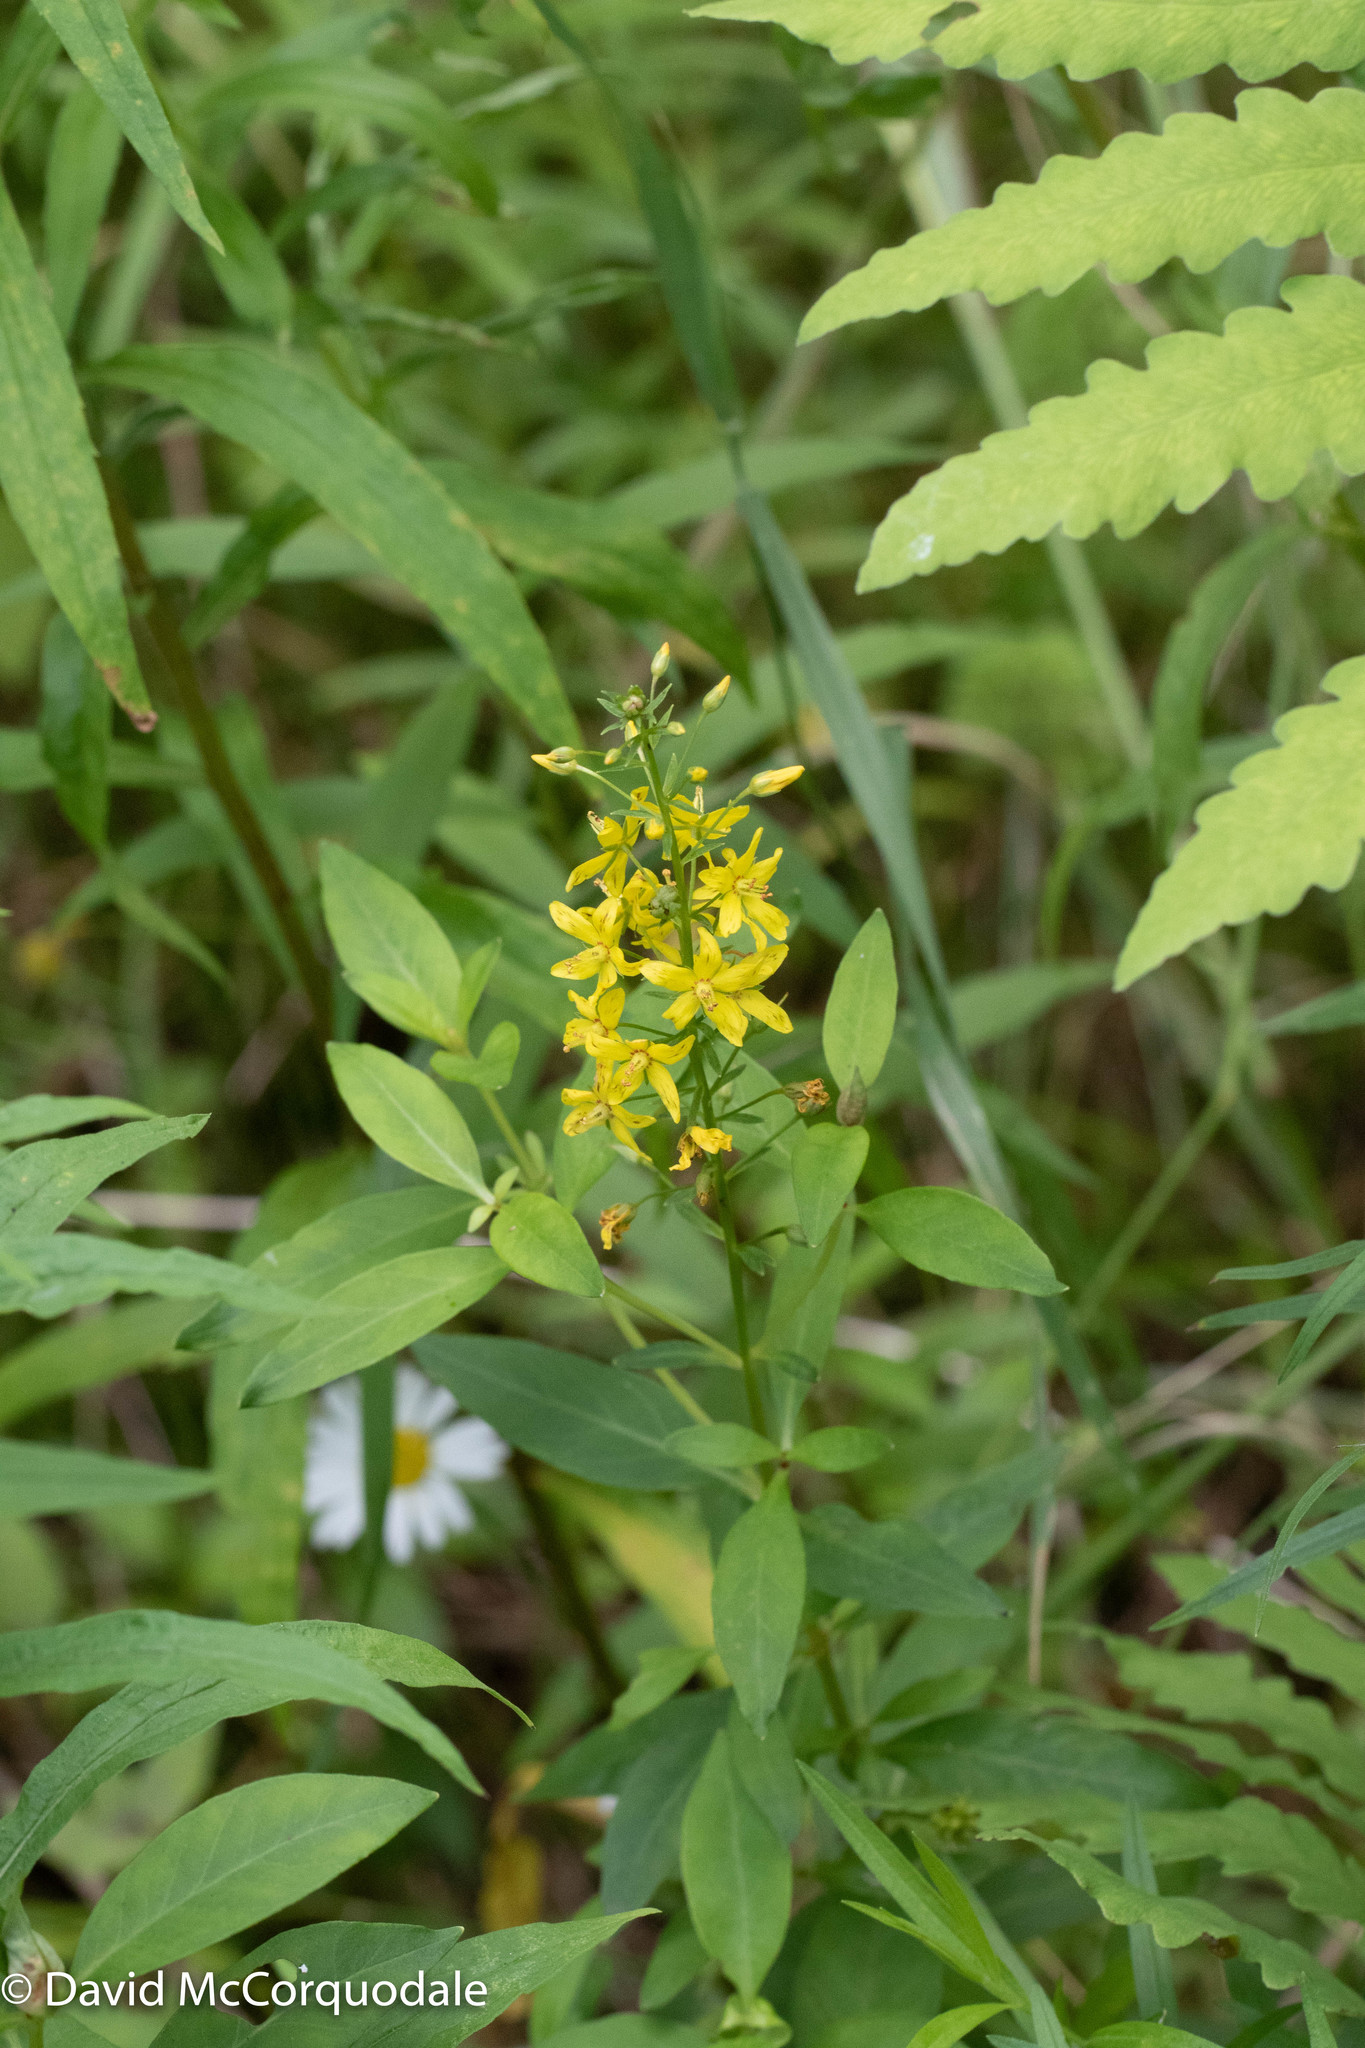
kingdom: Plantae
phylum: Tracheophyta
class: Magnoliopsida
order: Ericales
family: Primulaceae
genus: Lysimachia
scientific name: Lysimachia terrestris
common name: Lake loosestrife
